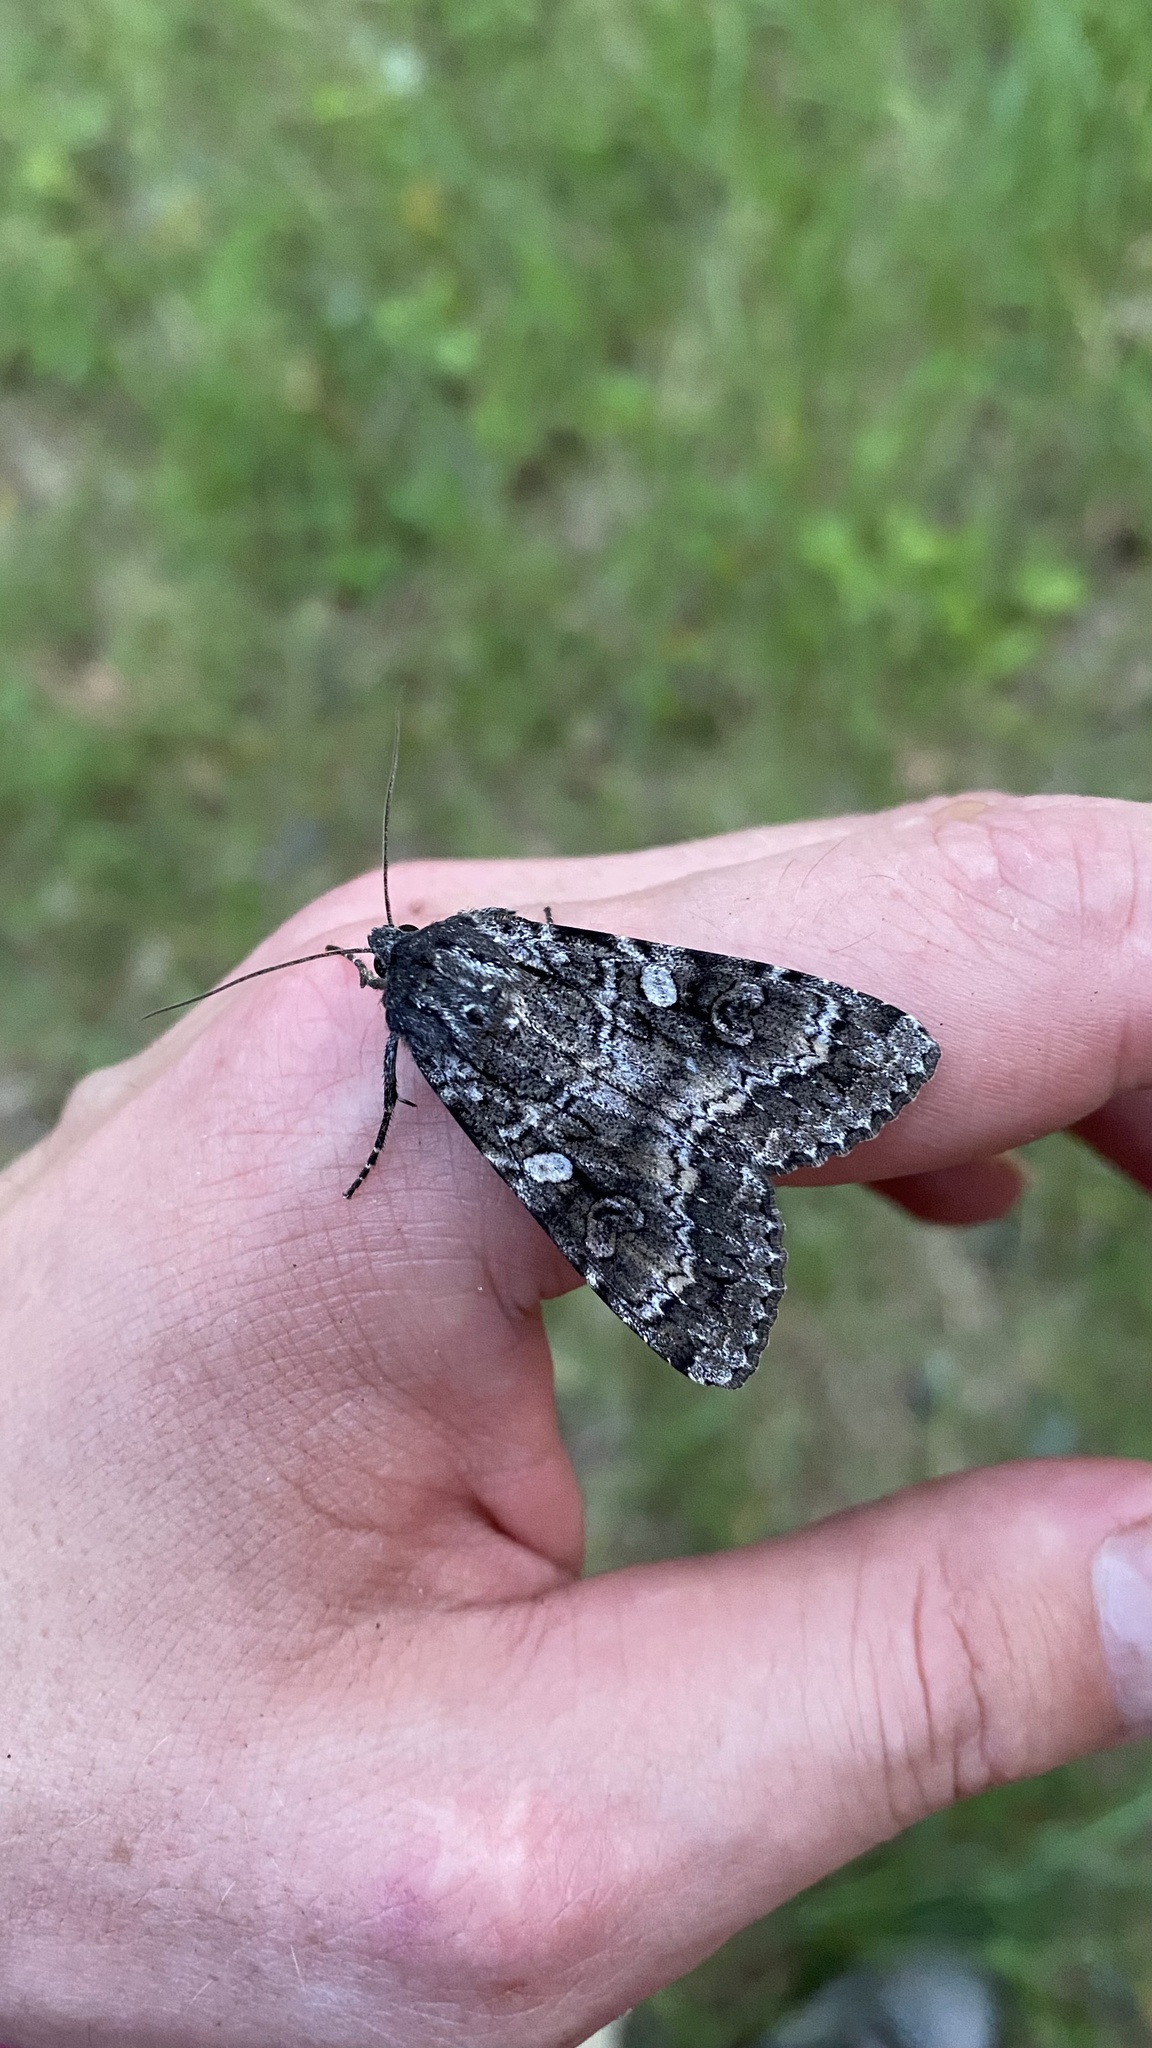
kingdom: Animalia
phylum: Arthropoda
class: Insecta
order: Lepidoptera
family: Noctuidae
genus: Eurois
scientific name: Eurois occulta
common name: Great brocade
